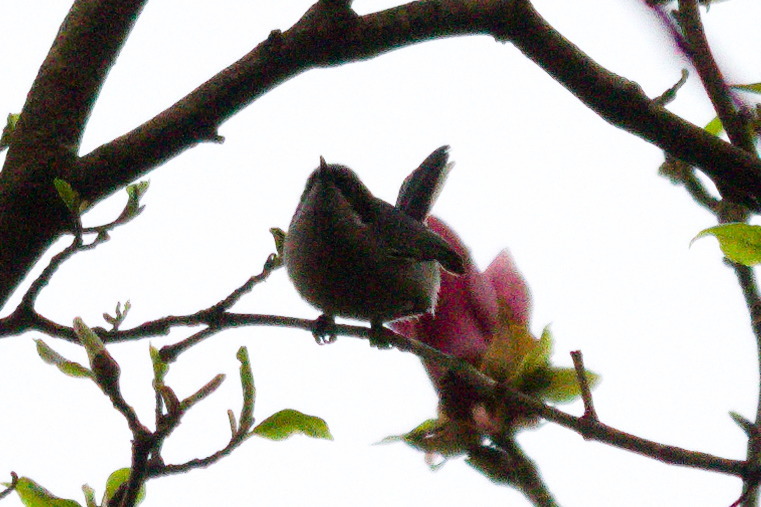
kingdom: Animalia
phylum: Chordata
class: Aves
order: Passeriformes
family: Polioptilidae
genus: Polioptila
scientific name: Polioptila dumicola
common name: Masked gnatcatcher
